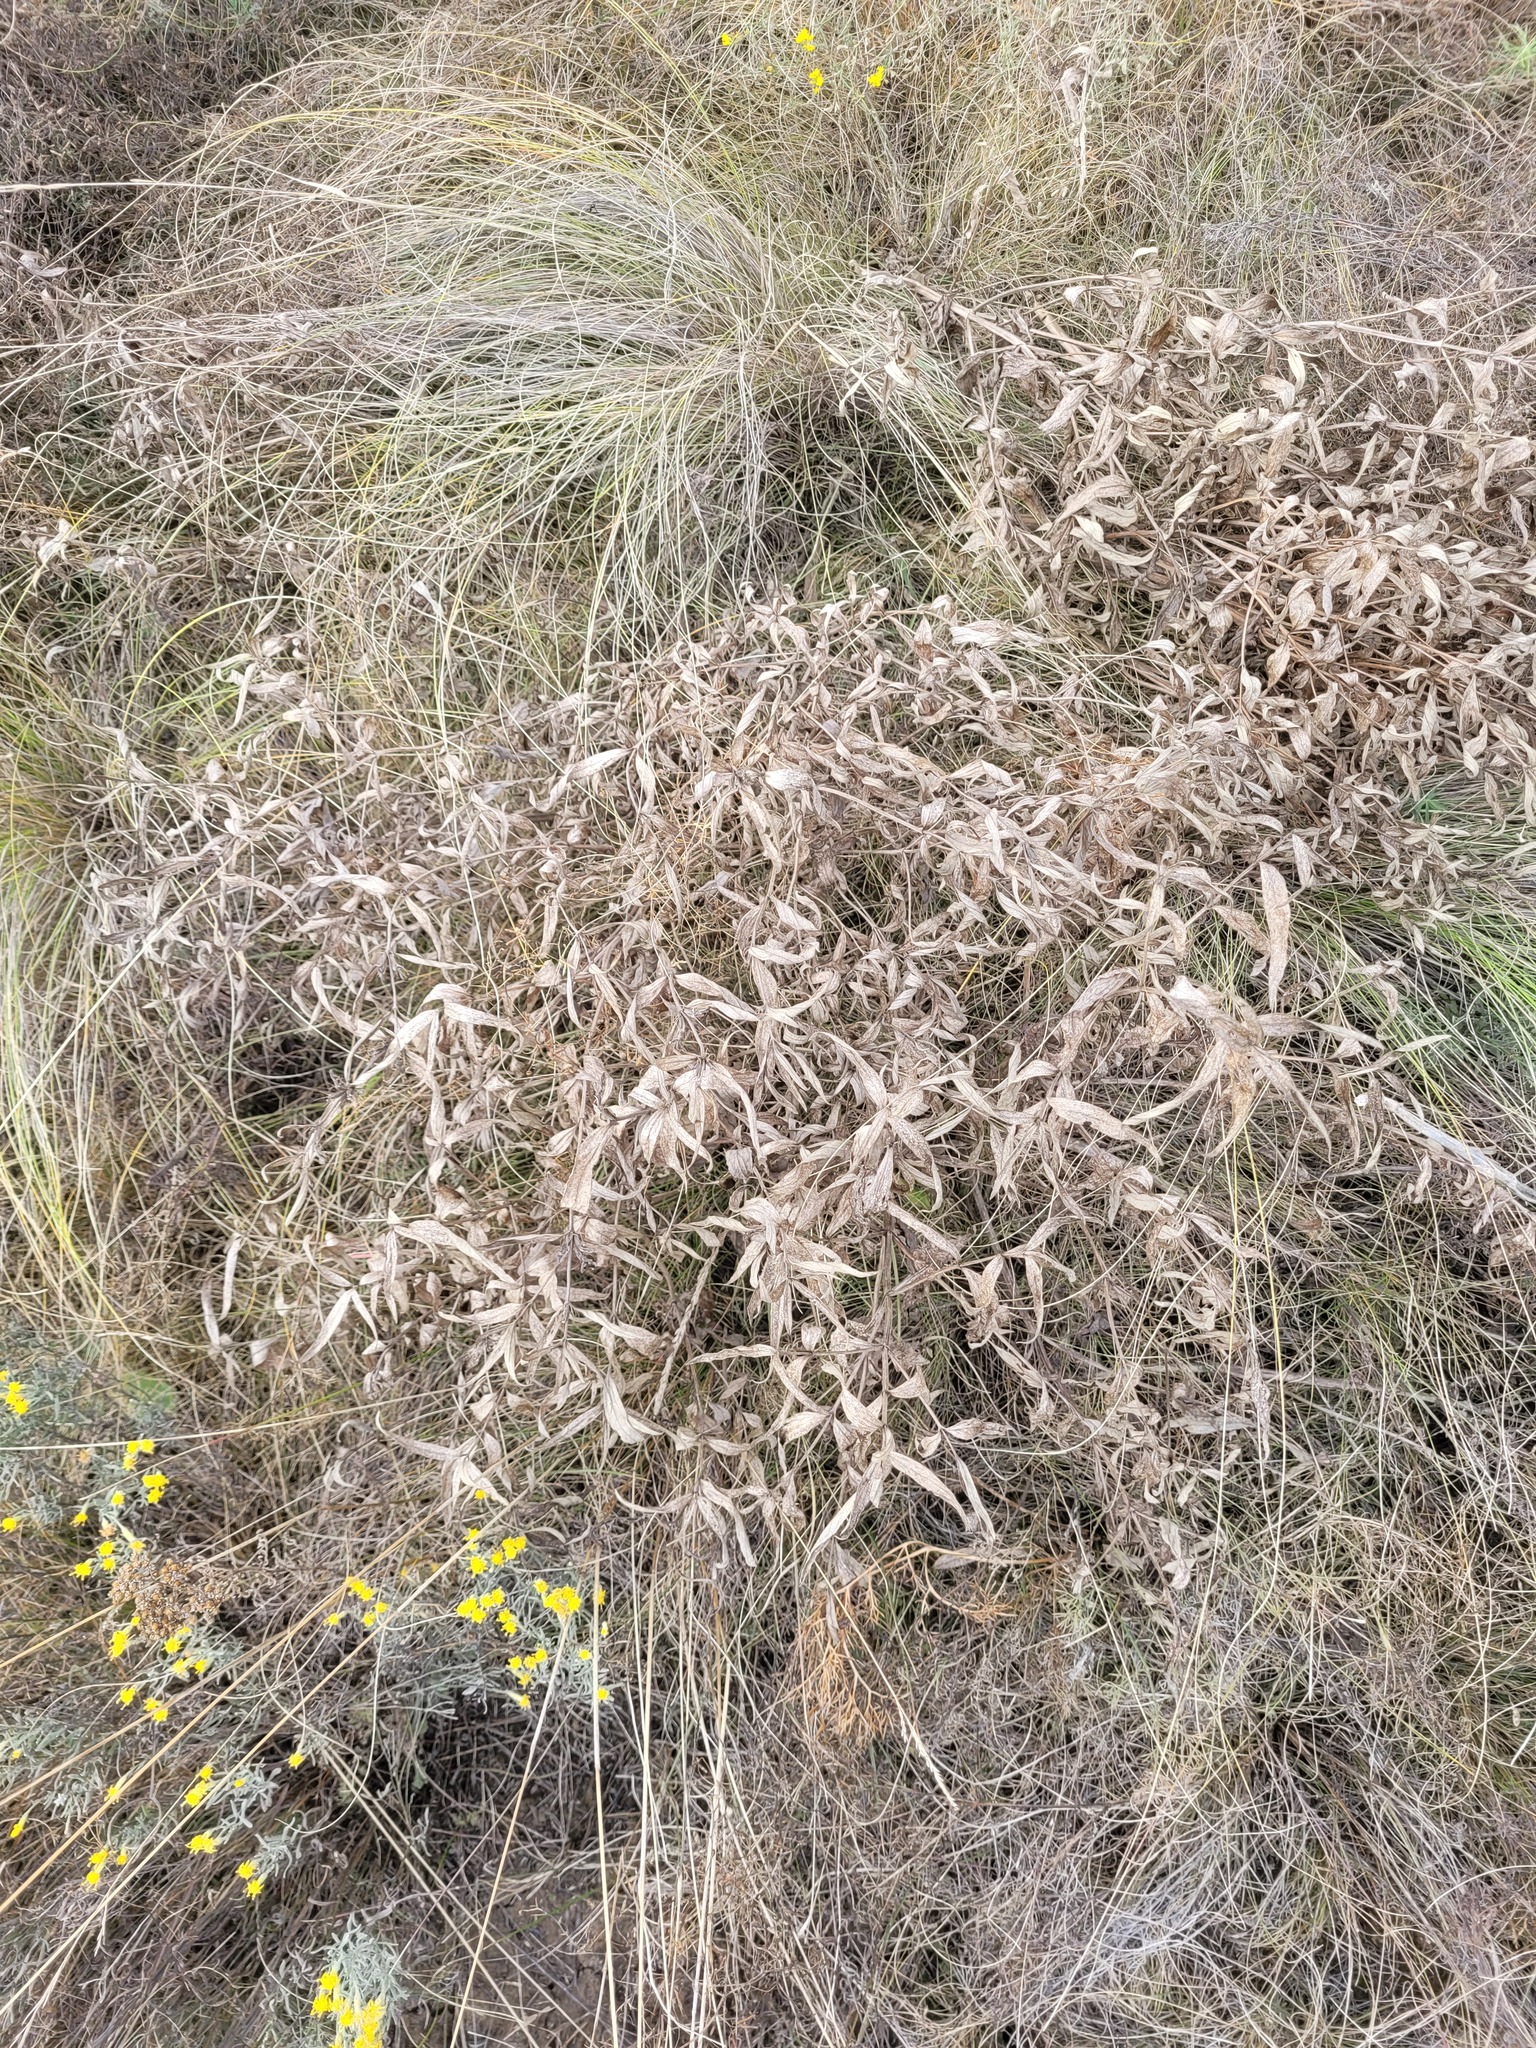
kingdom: Plantae
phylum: Tracheophyta
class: Magnoliopsida
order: Lamiales
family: Lamiaceae
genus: Phlomis
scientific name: Phlomis herba-venti
